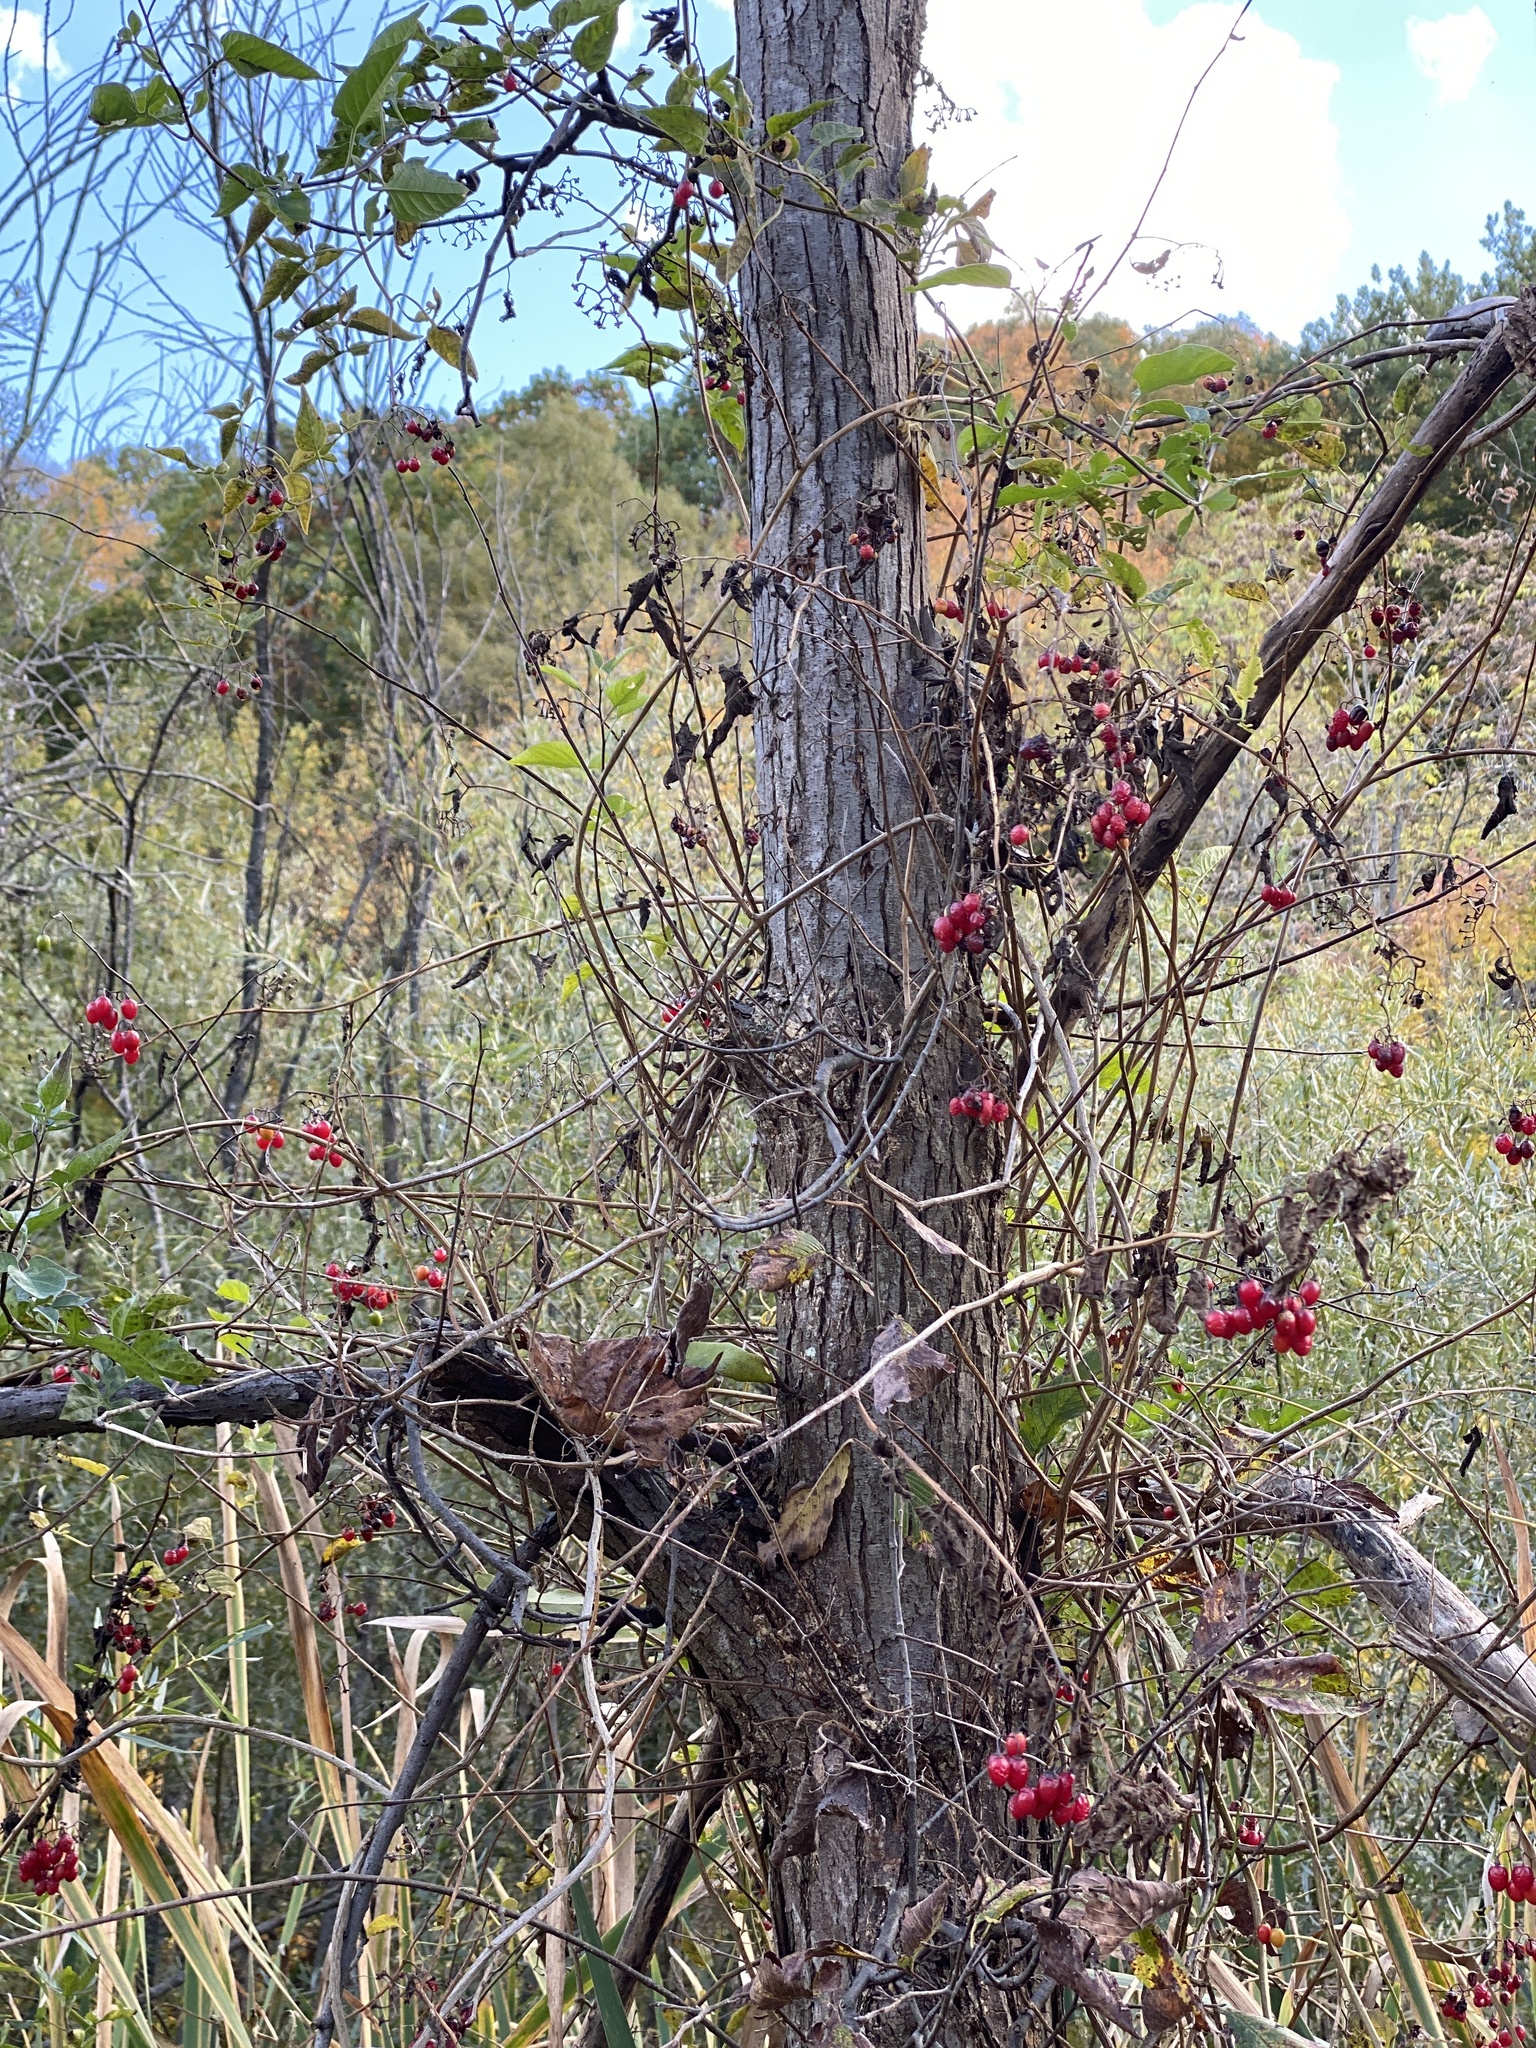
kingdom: Plantae
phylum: Tracheophyta
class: Magnoliopsida
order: Solanales
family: Solanaceae
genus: Solanum
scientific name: Solanum dulcamara
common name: Climbing nightshade
